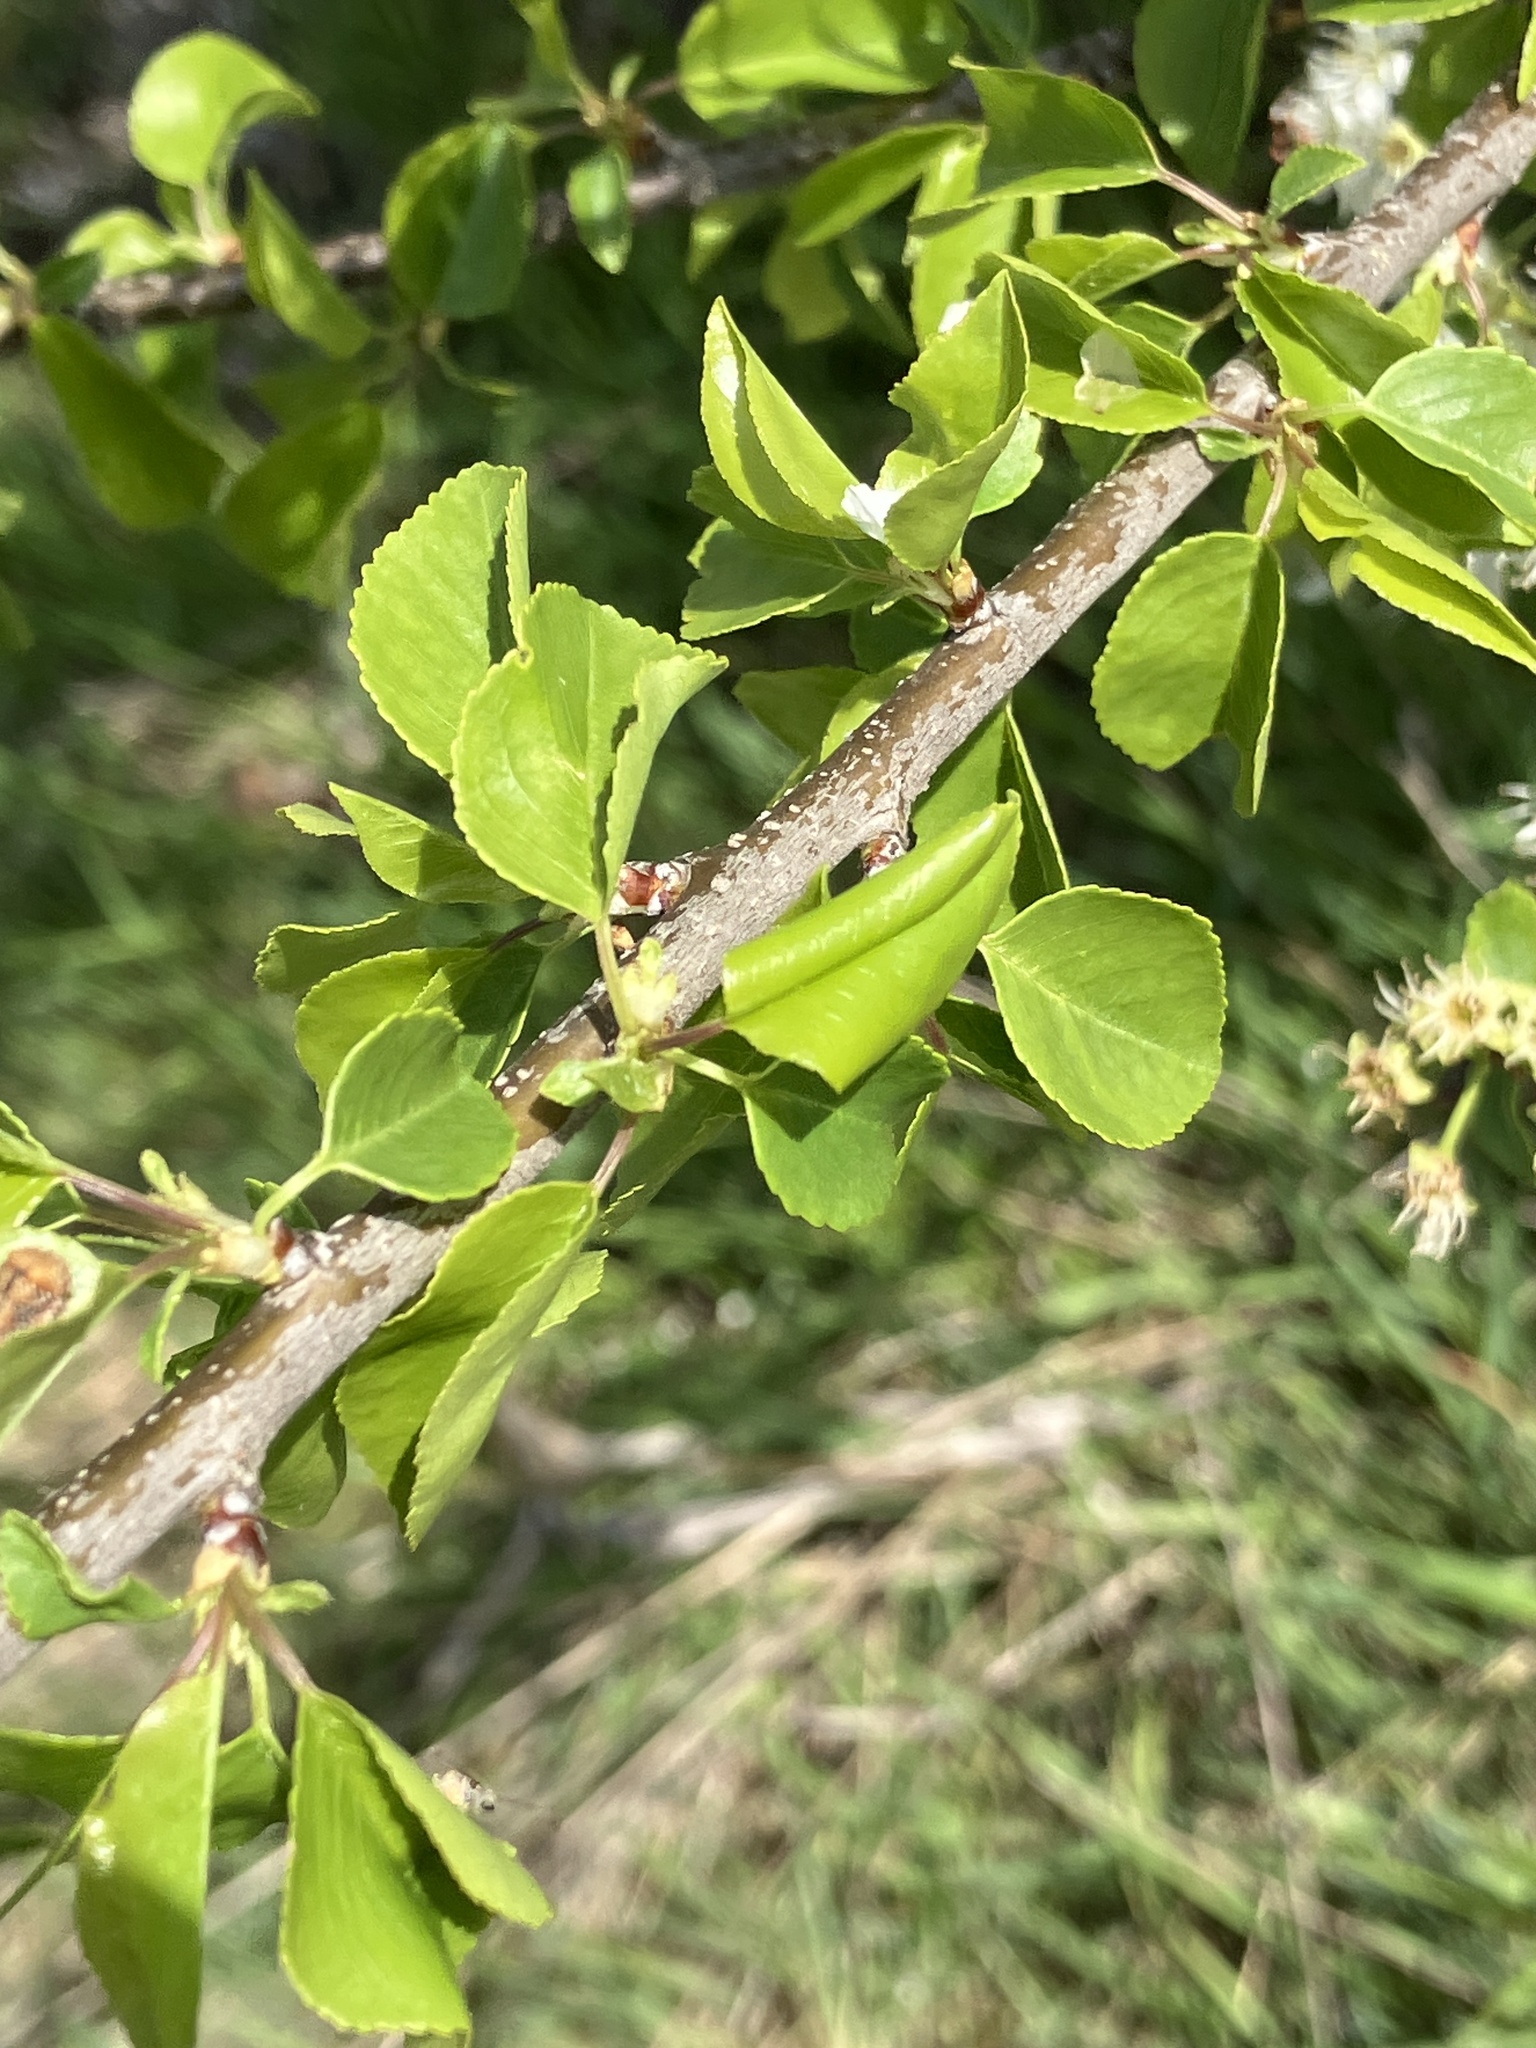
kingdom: Plantae
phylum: Tracheophyta
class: Magnoliopsida
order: Rosales
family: Rosaceae
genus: Prunus
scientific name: Prunus mahaleb
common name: Mahaleb cherry
